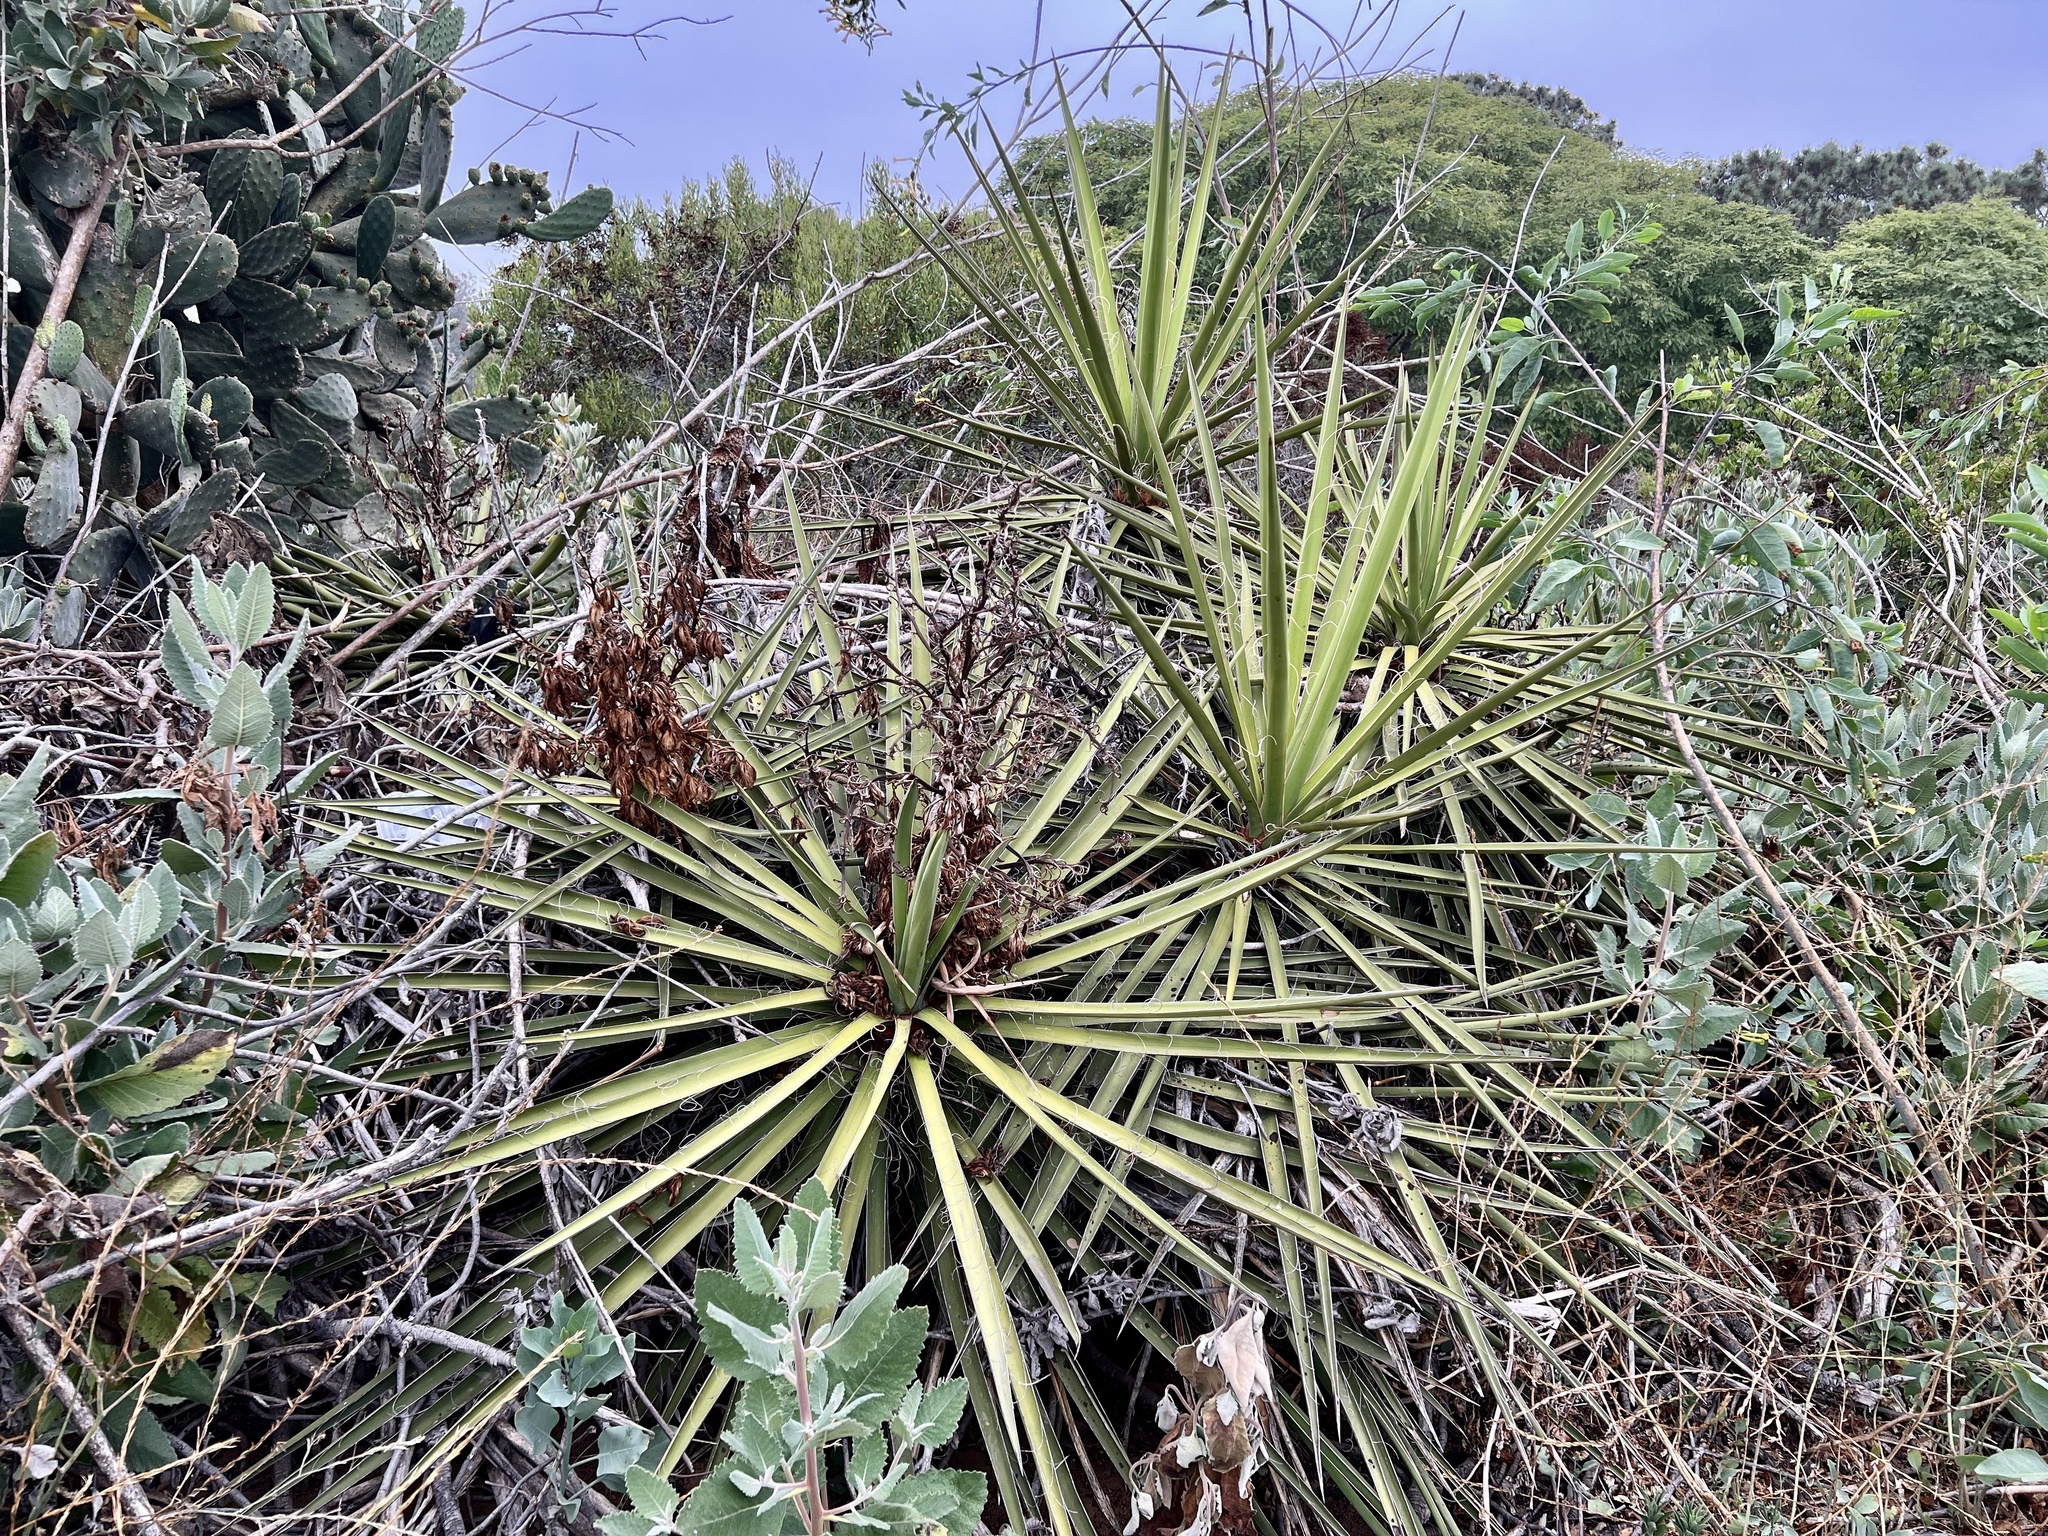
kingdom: Plantae
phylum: Tracheophyta
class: Liliopsida
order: Asparagales
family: Asparagaceae
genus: Yucca
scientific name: Yucca schidigera
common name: Mojave yucca
